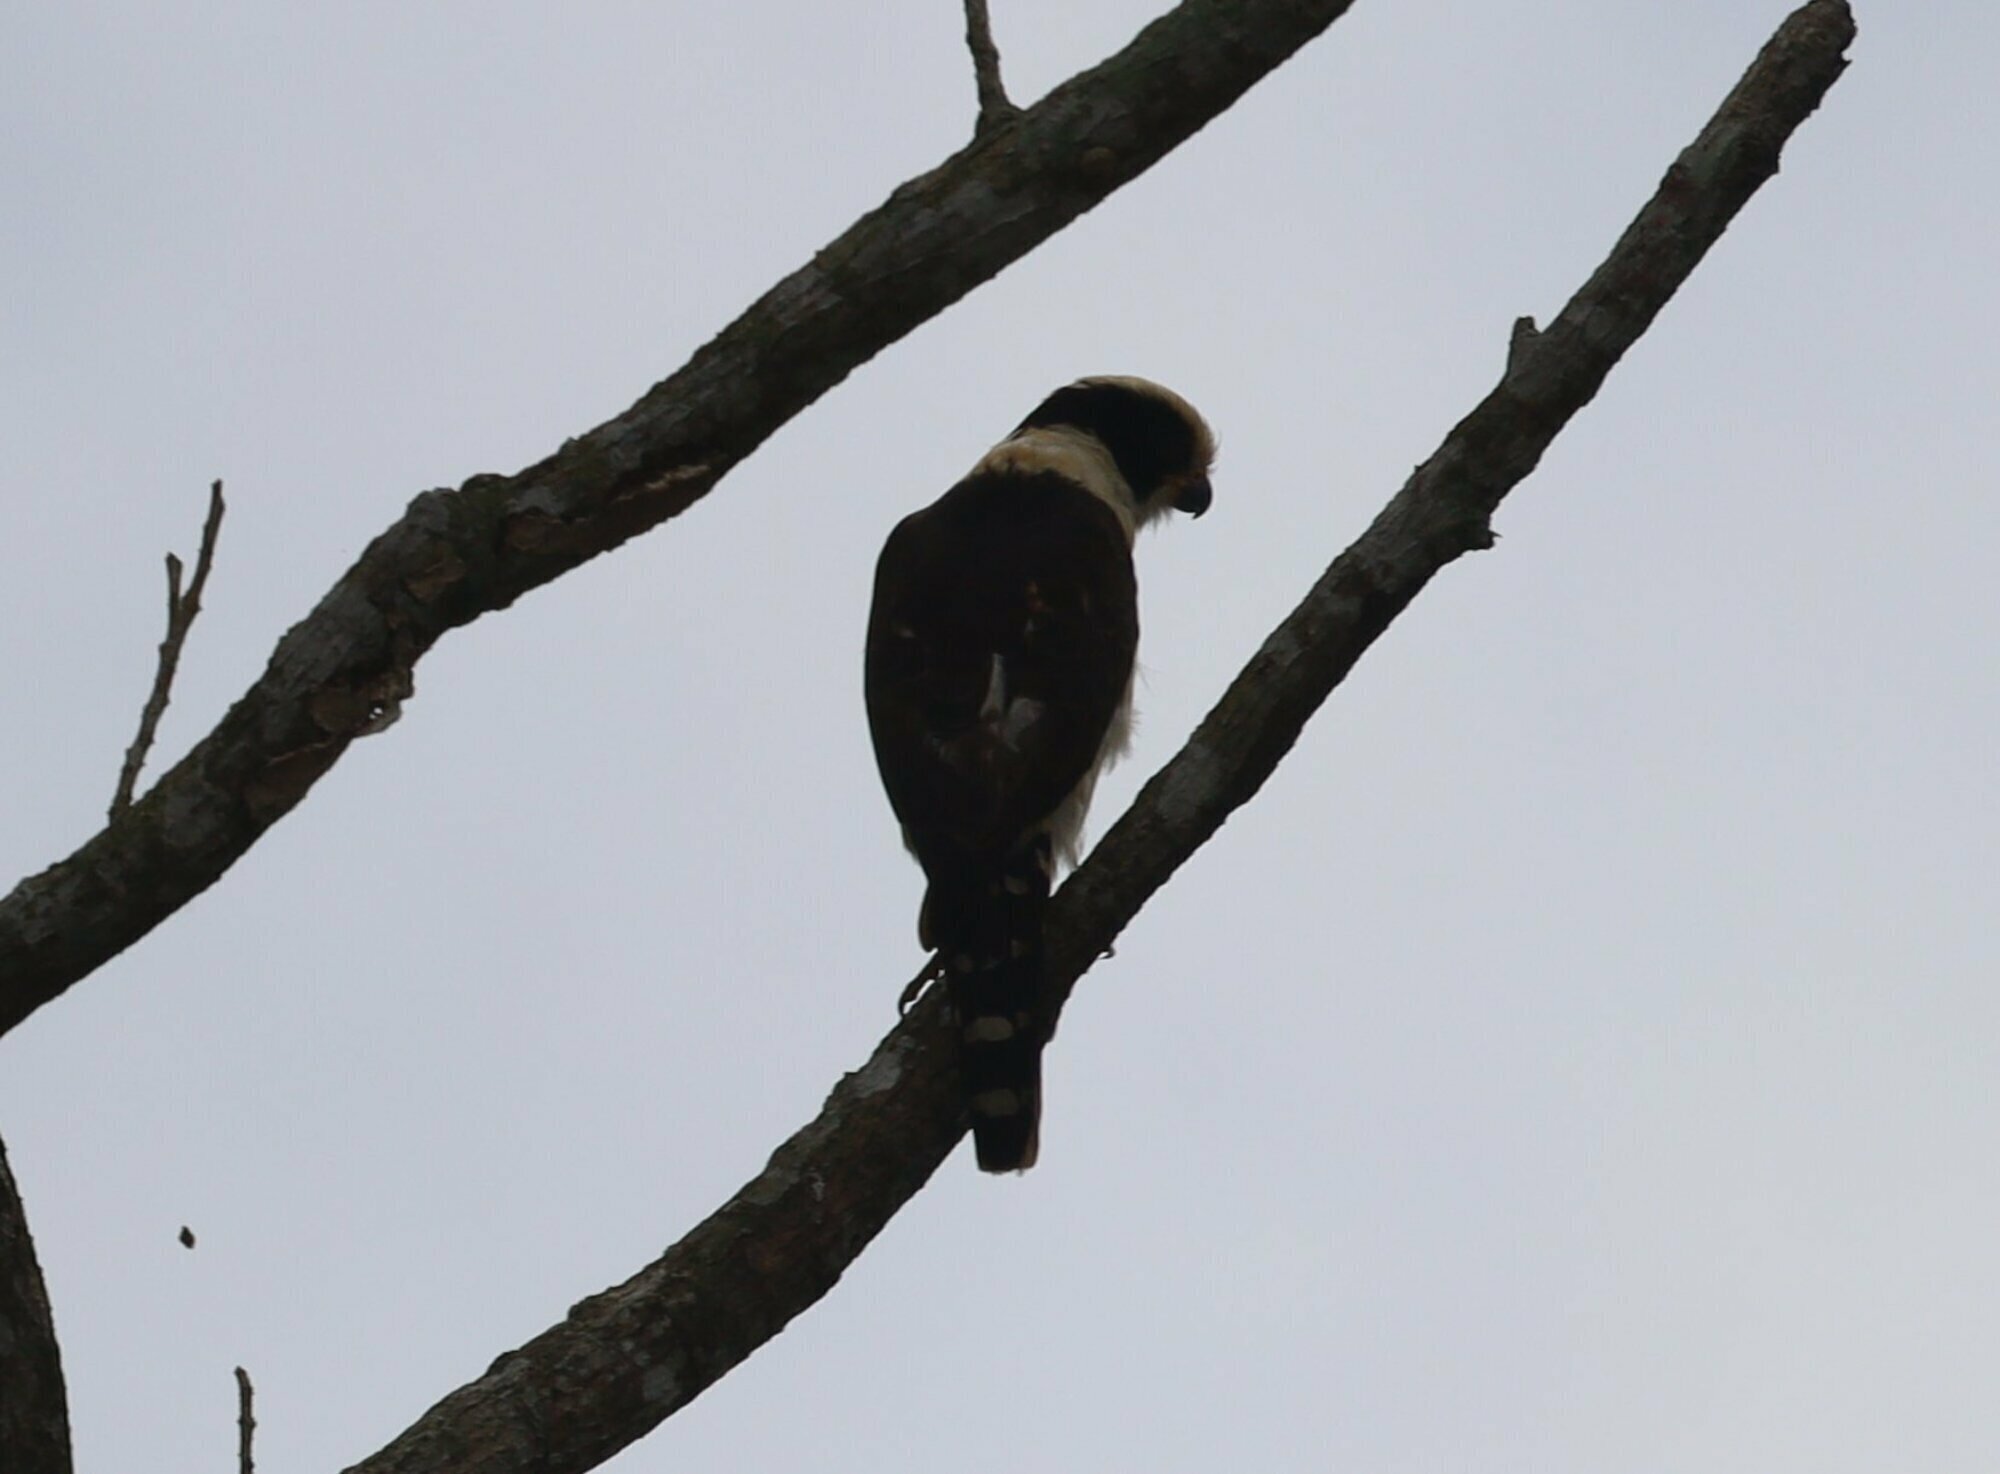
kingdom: Animalia
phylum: Chordata
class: Aves
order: Falconiformes
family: Falconidae
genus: Herpetotheres
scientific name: Herpetotheres cachinnans
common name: Laughing falcon
